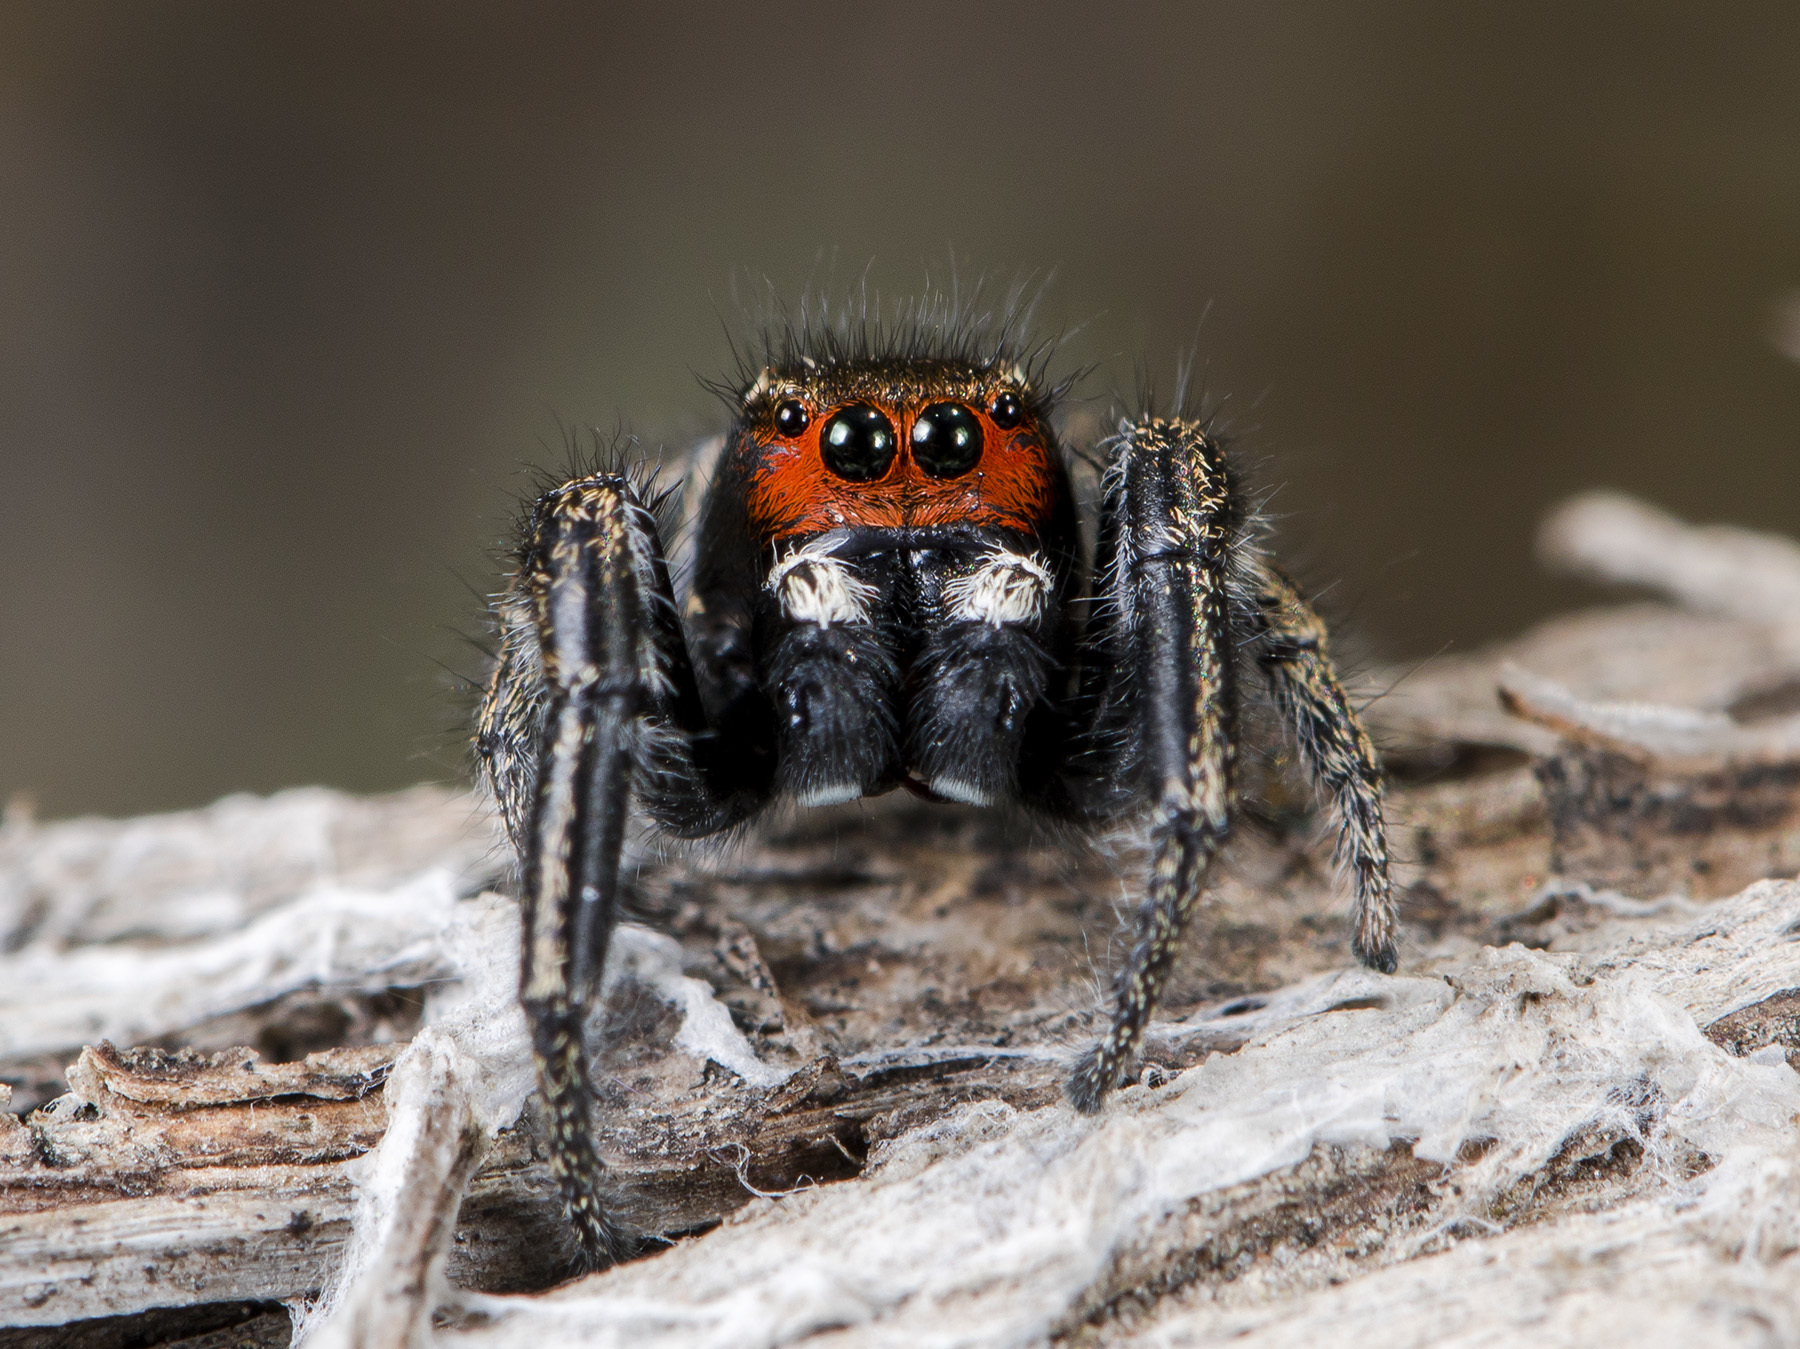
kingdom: Animalia
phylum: Arthropoda
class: Arachnida
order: Araneae
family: Salticidae
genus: Pellenes
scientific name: Pellenes seriatus
